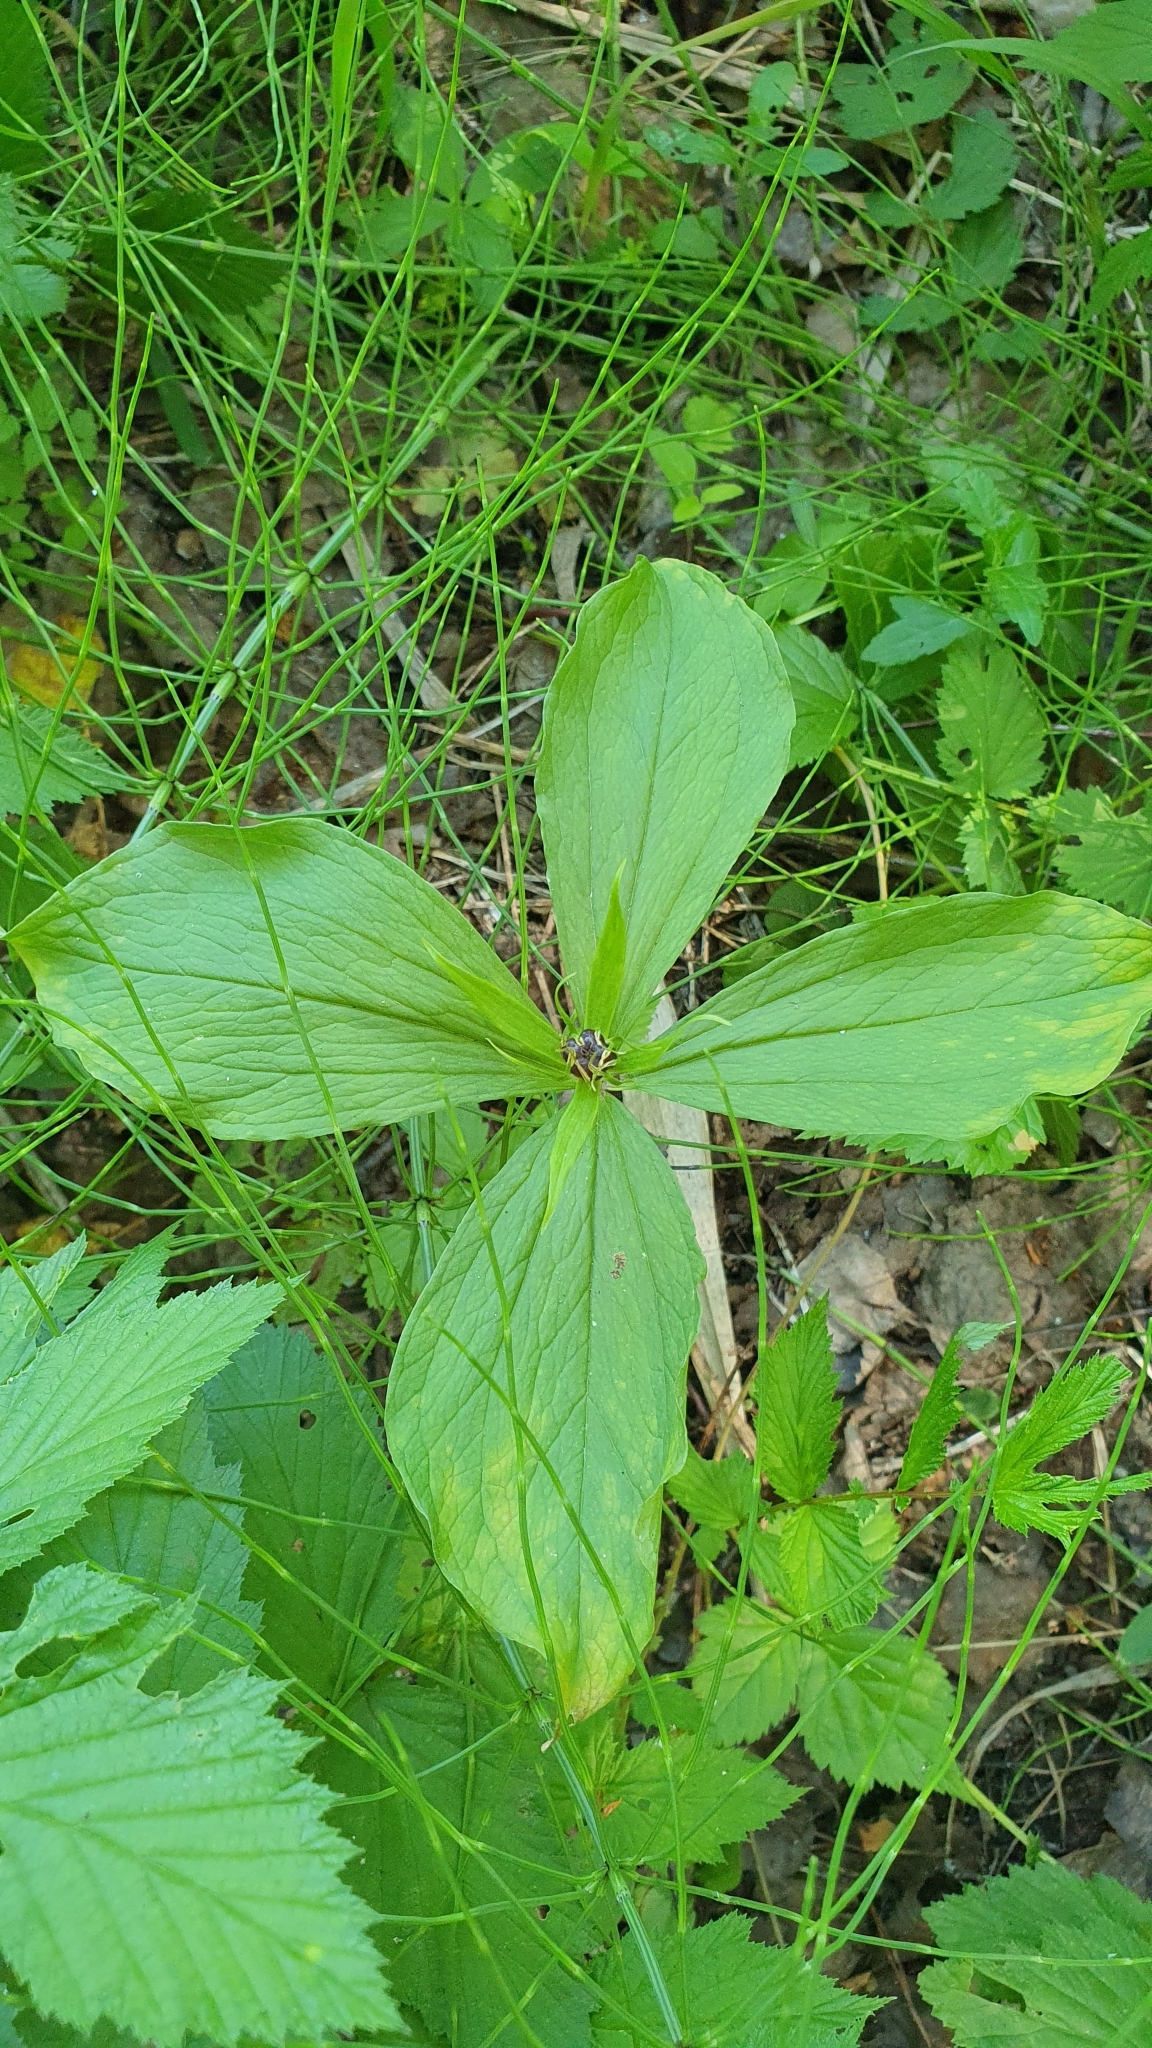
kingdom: Plantae
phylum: Tracheophyta
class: Liliopsida
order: Liliales
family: Melanthiaceae
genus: Paris
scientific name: Paris quadrifolia
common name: Herb-paris
